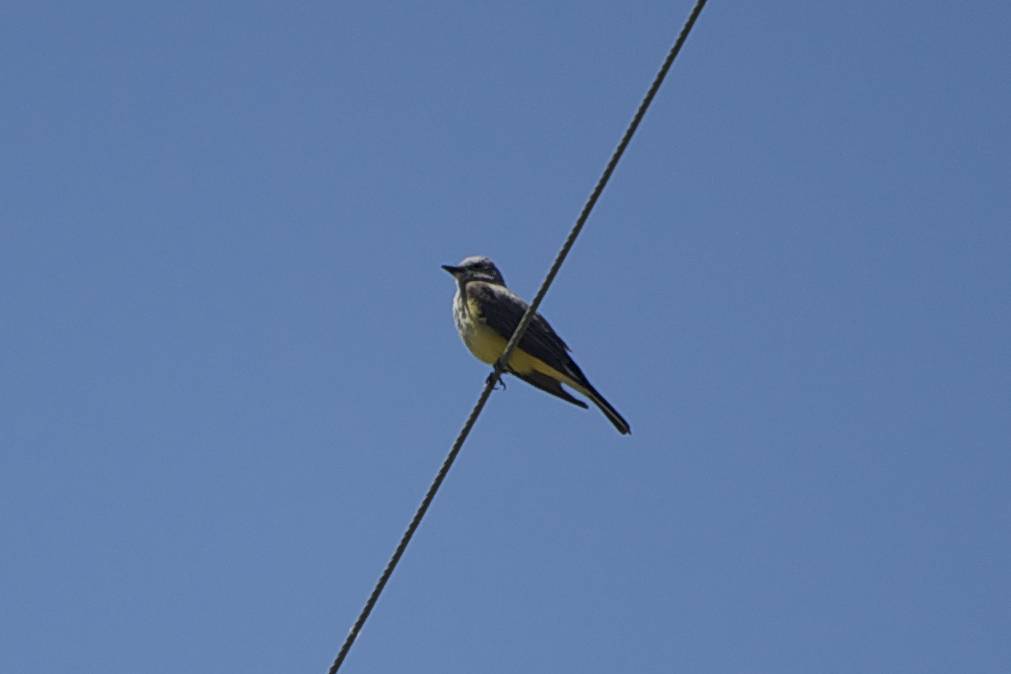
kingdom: Animalia
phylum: Chordata
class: Aves
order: Passeriformes
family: Tyrannidae
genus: Tyrannus
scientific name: Tyrannus verticalis
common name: Western kingbird
